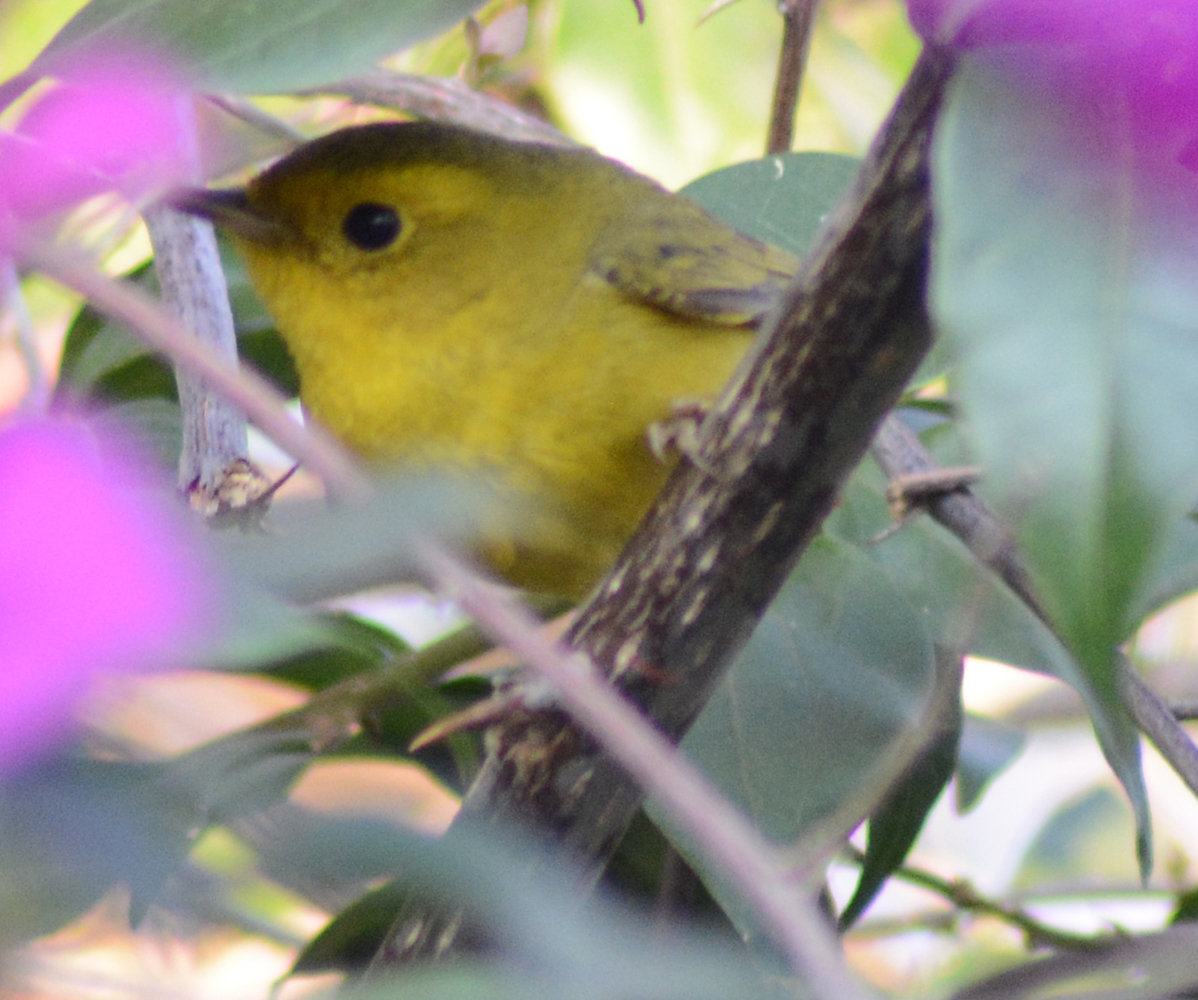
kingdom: Animalia
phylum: Chordata
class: Aves
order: Passeriformes
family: Parulidae
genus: Cardellina
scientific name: Cardellina pusilla
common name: Wilson's warbler
